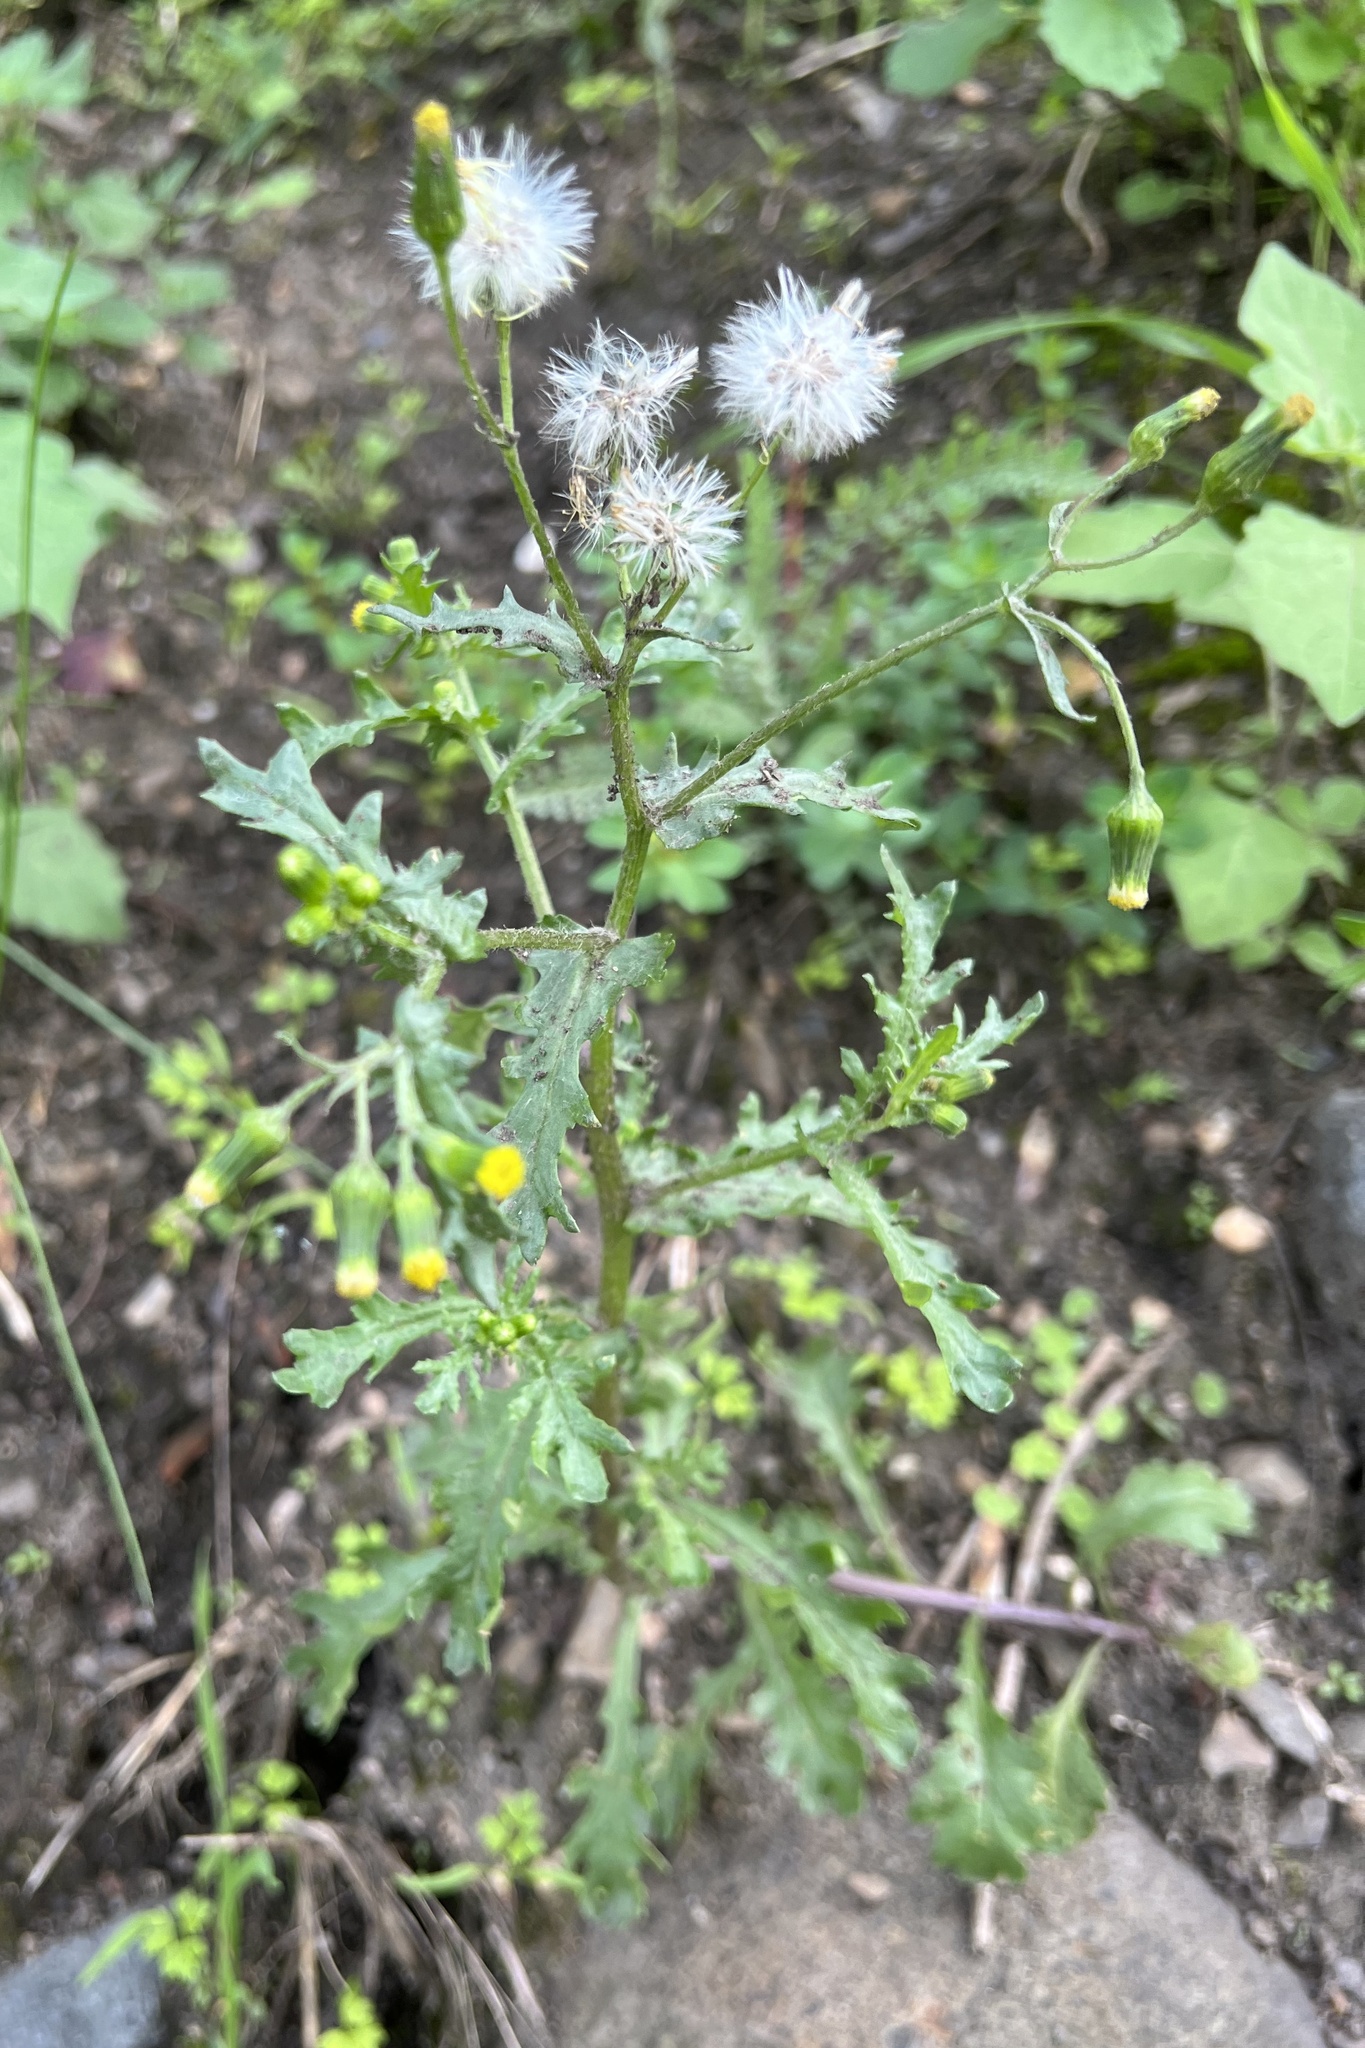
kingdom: Plantae
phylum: Tracheophyta
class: Magnoliopsida
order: Asterales
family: Asteraceae
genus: Senecio
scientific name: Senecio vulgaris
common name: Old-man-in-the-spring
